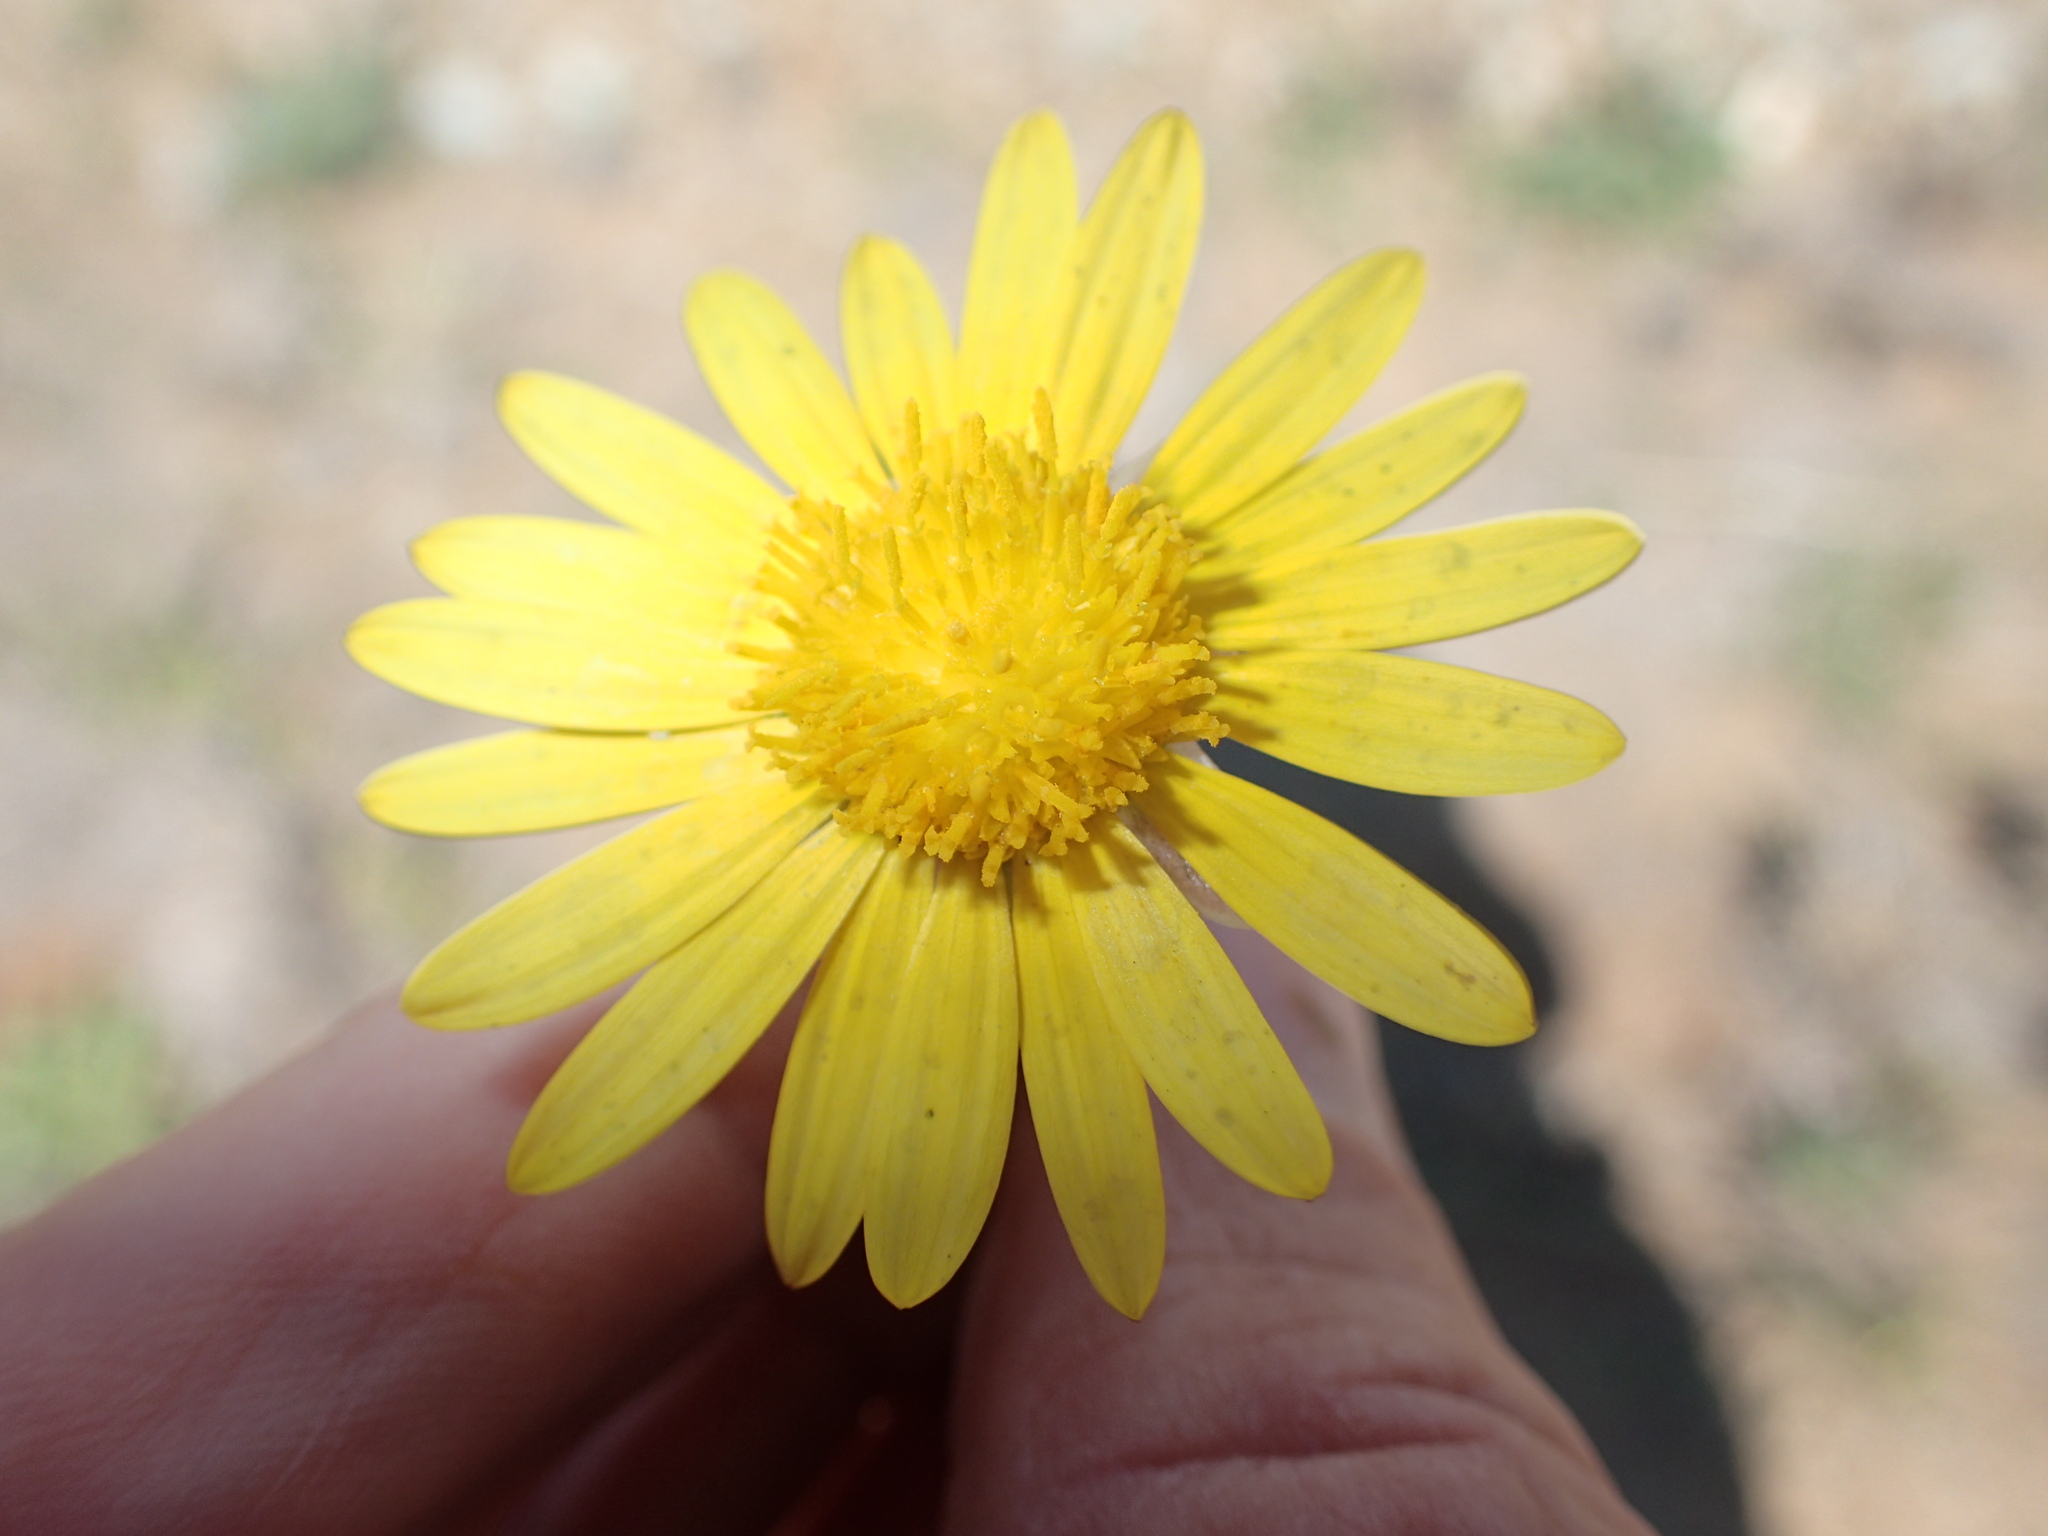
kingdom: Plantae
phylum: Tracheophyta
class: Magnoliopsida
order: Asterales
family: Asteraceae
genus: Arctotheca
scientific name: Arctotheca calendula
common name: Capeweed
